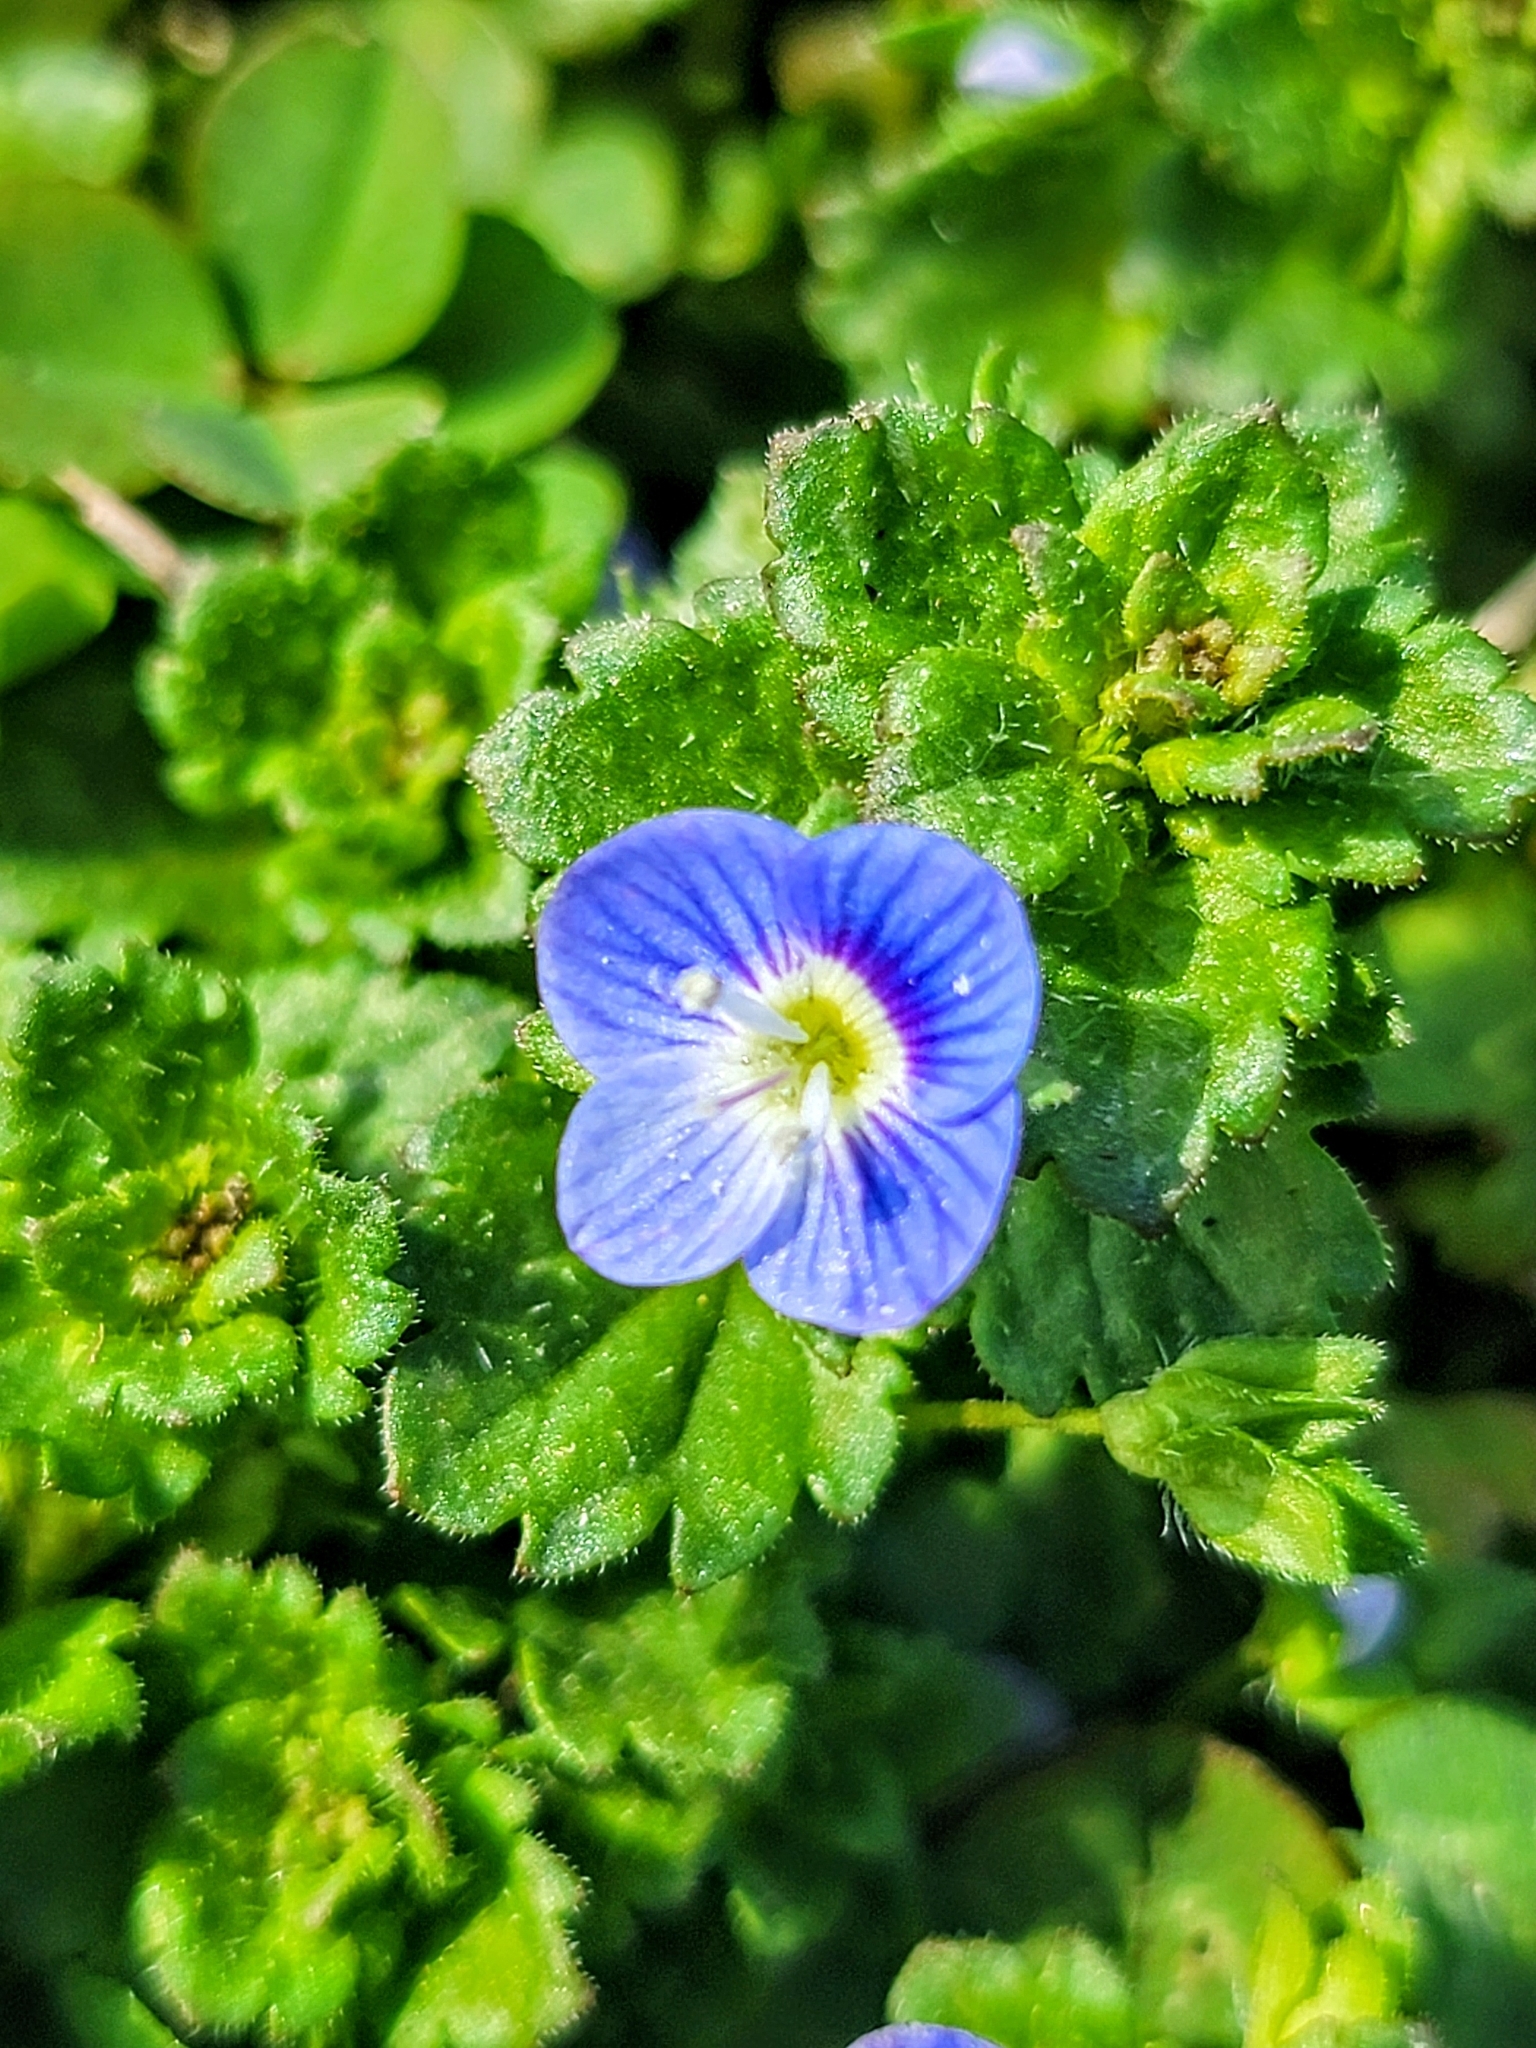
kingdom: Plantae
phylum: Tracheophyta
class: Magnoliopsida
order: Lamiales
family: Plantaginaceae
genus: Veronica
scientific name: Veronica persica
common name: Common field-speedwell
